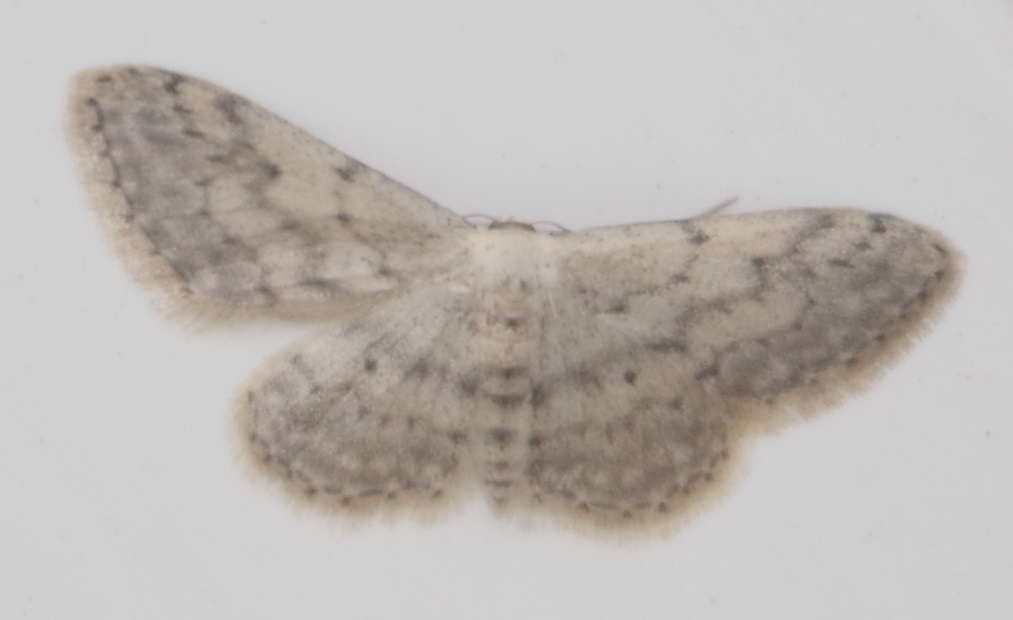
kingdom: Animalia
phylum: Arthropoda
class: Insecta
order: Lepidoptera
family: Geometridae
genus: Idaea
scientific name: Idaea seriata
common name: Small dusty wave
